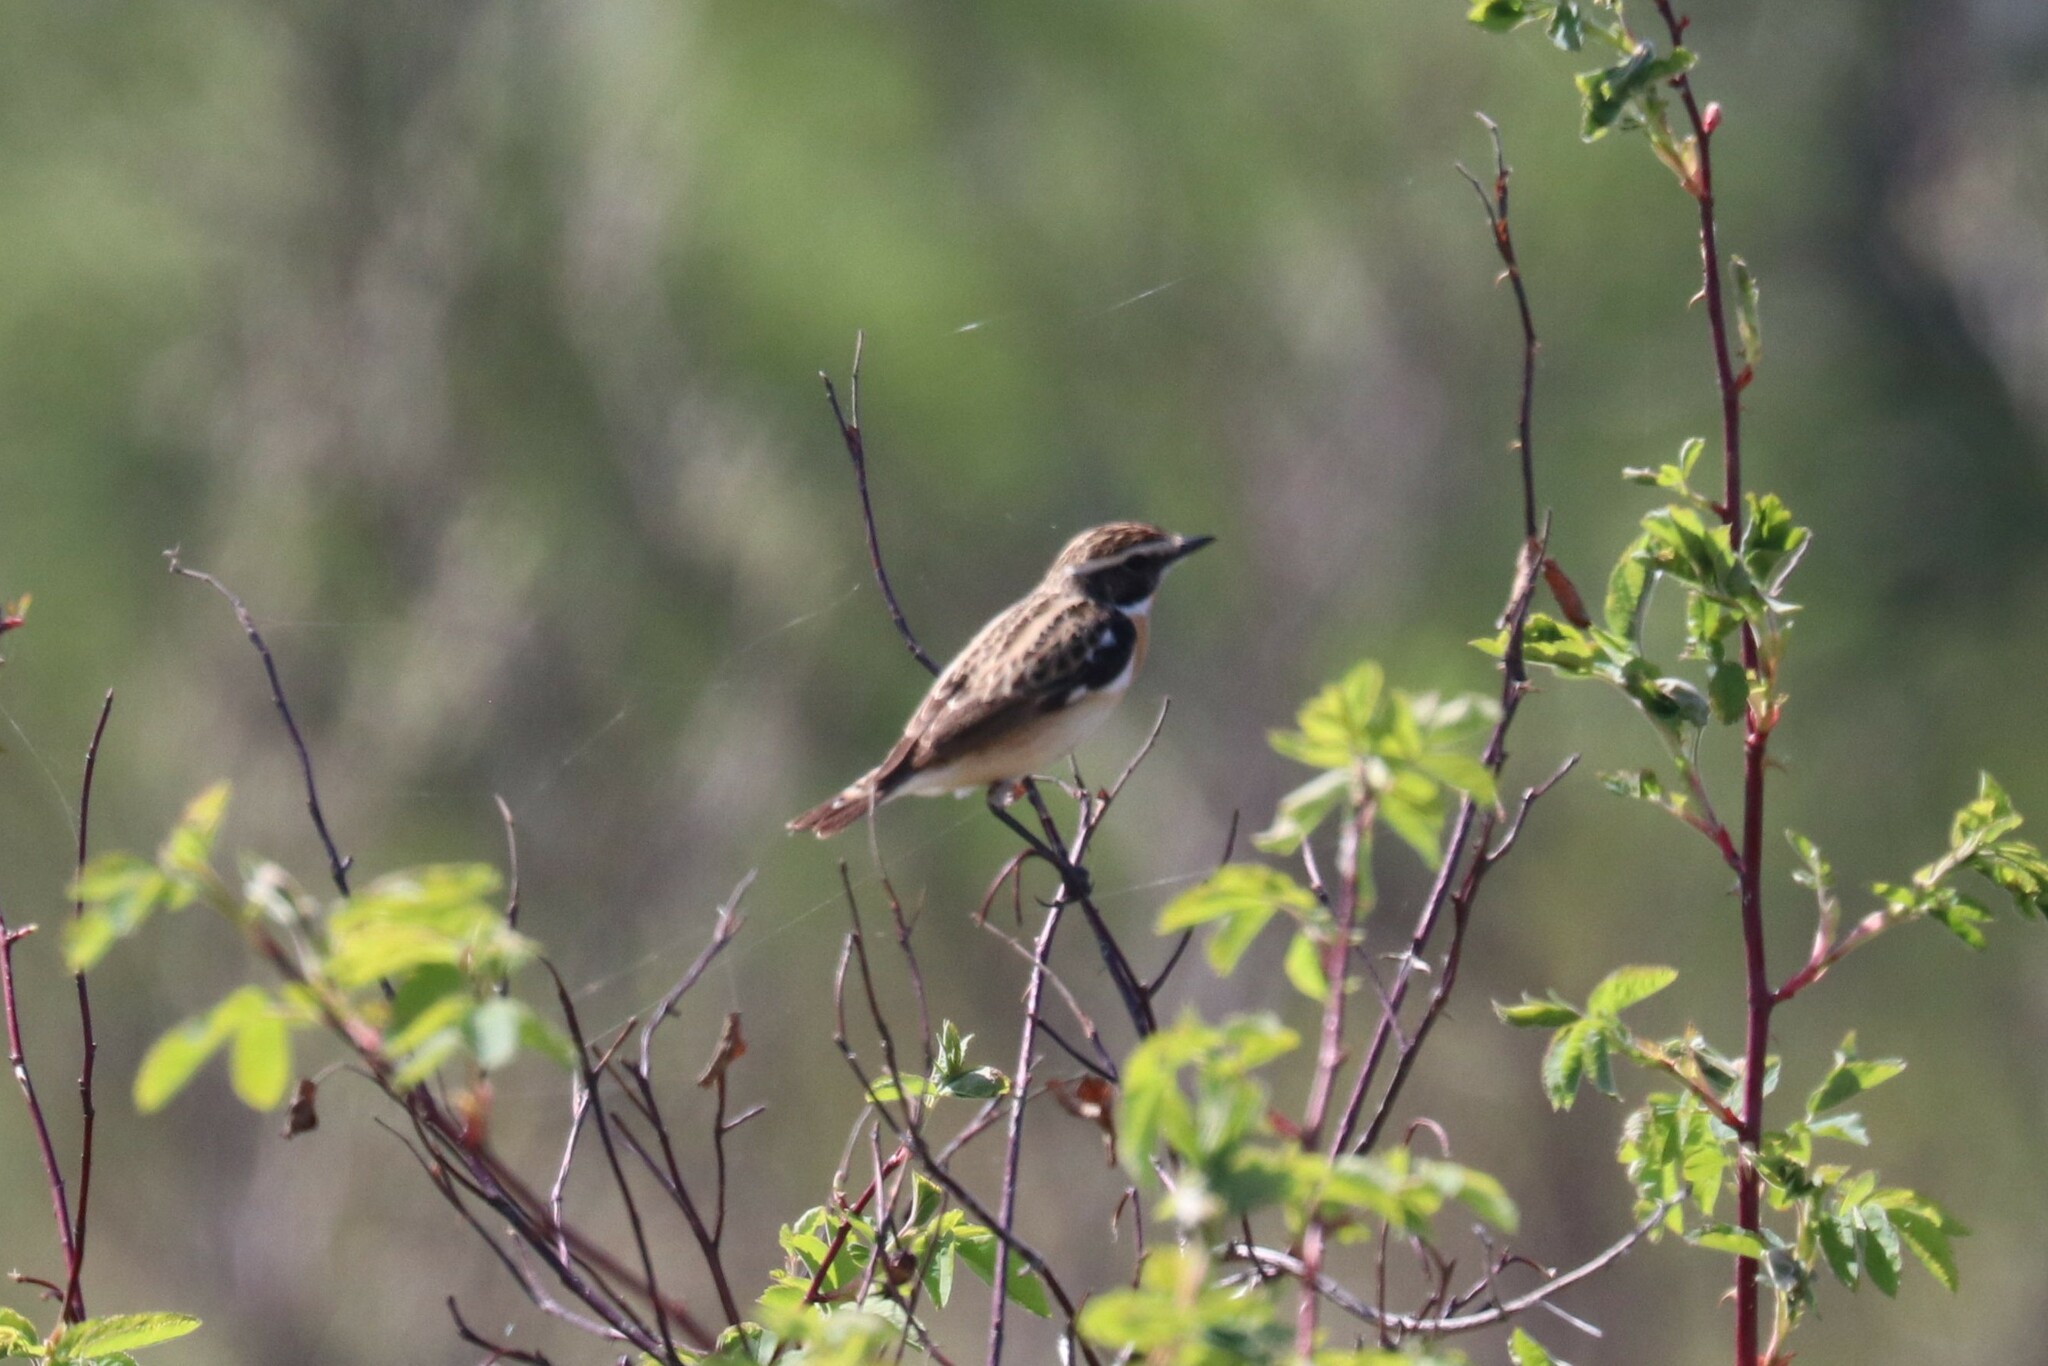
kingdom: Animalia
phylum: Chordata
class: Aves
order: Passeriformes
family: Muscicapidae
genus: Saxicola
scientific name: Saxicola rubetra
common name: Whinchat
